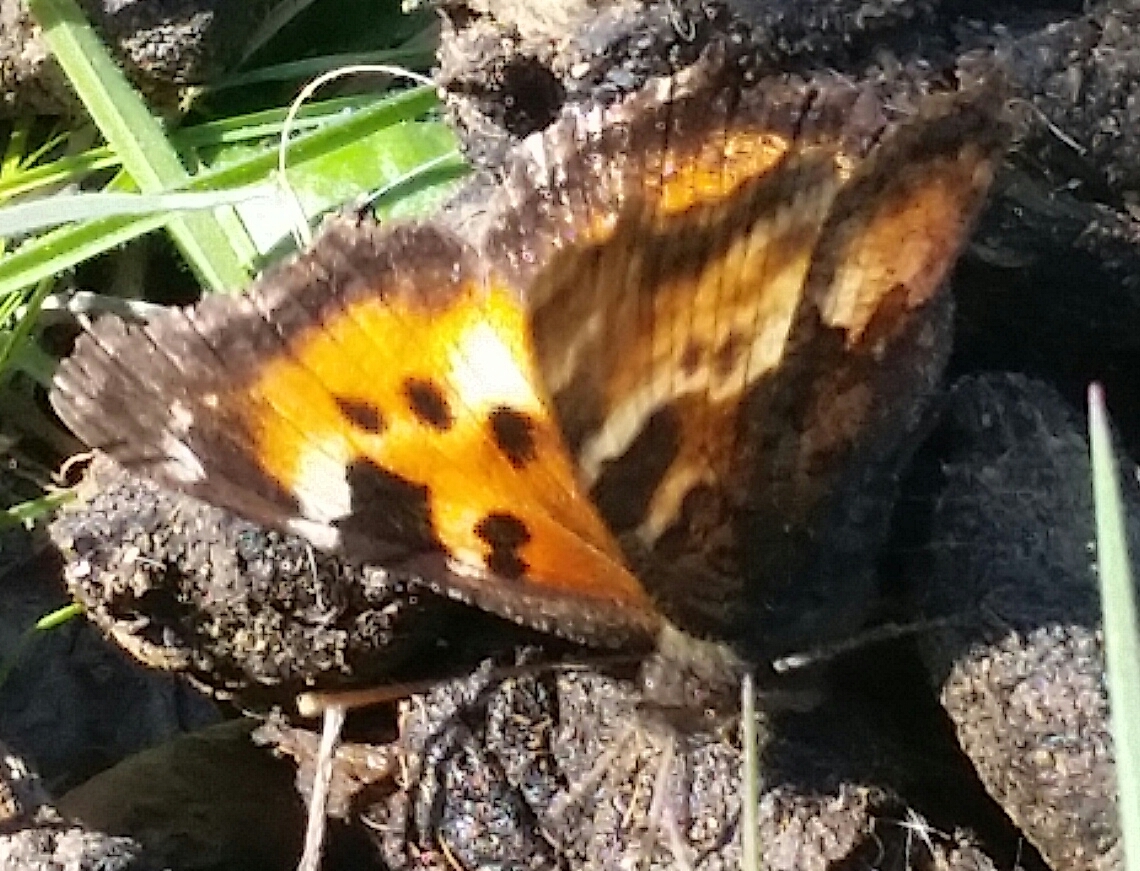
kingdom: Animalia
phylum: Arthropoda
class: Insecta
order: Lepidoptera
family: Nymphalidae
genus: Nymphalis
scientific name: Nymphalis californica
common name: California tortoiseshell
